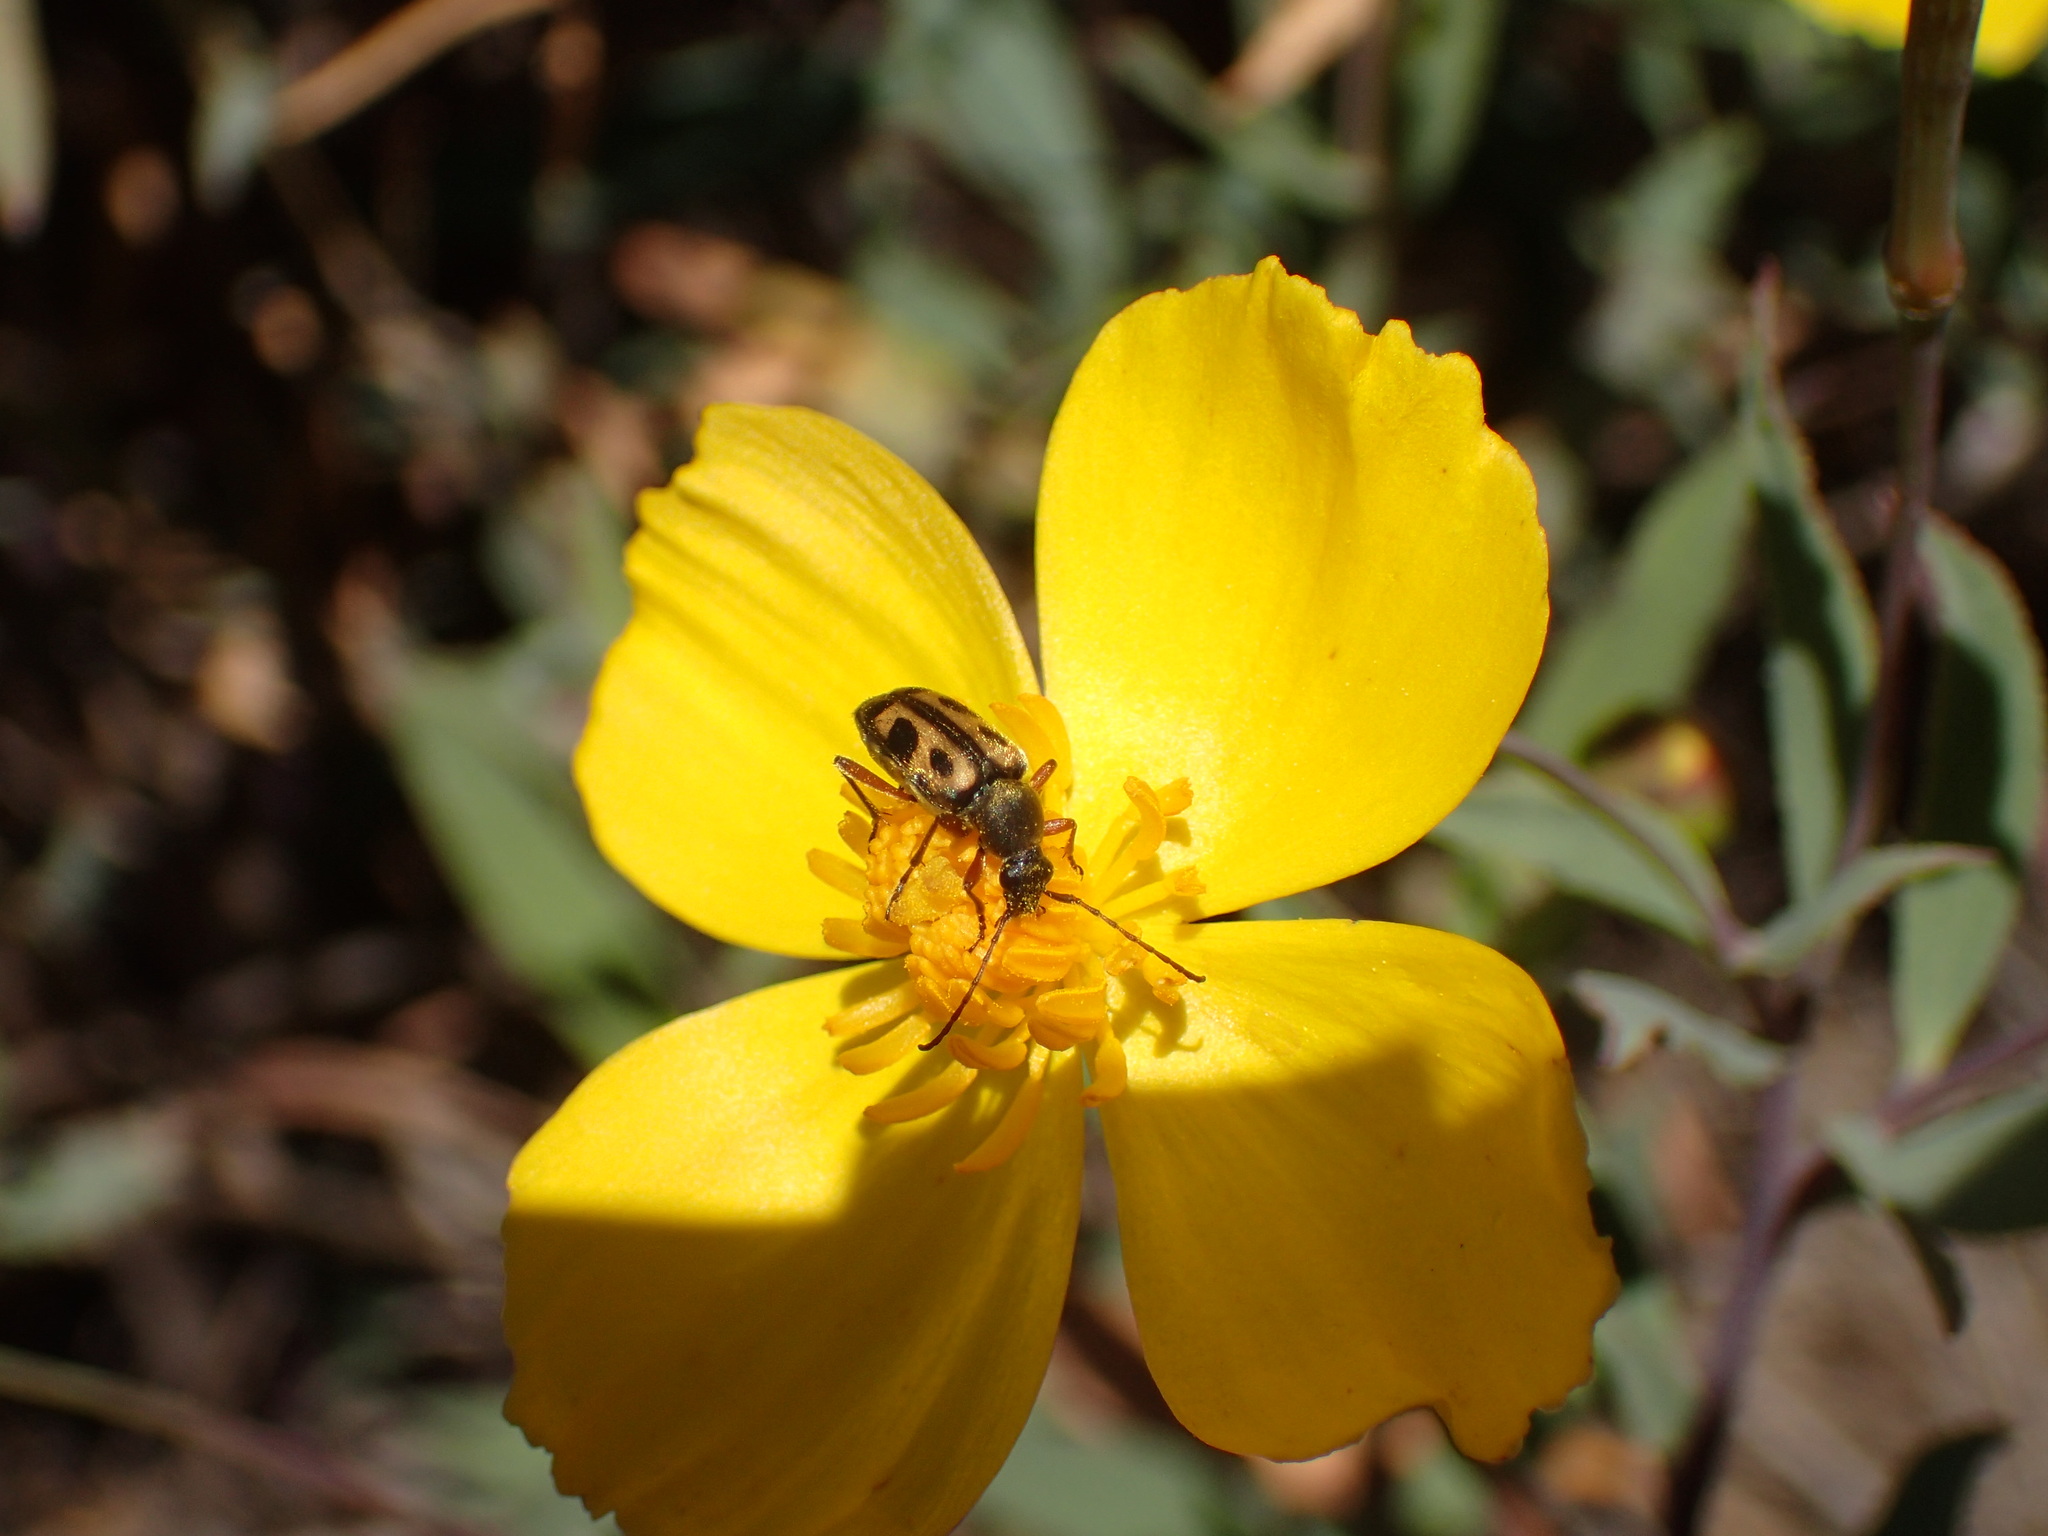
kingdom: Animalia
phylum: Arthropoda
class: Insecta
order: Coleoptera
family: Cerambycidae
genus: Judolia
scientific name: Judolia sexspilota
